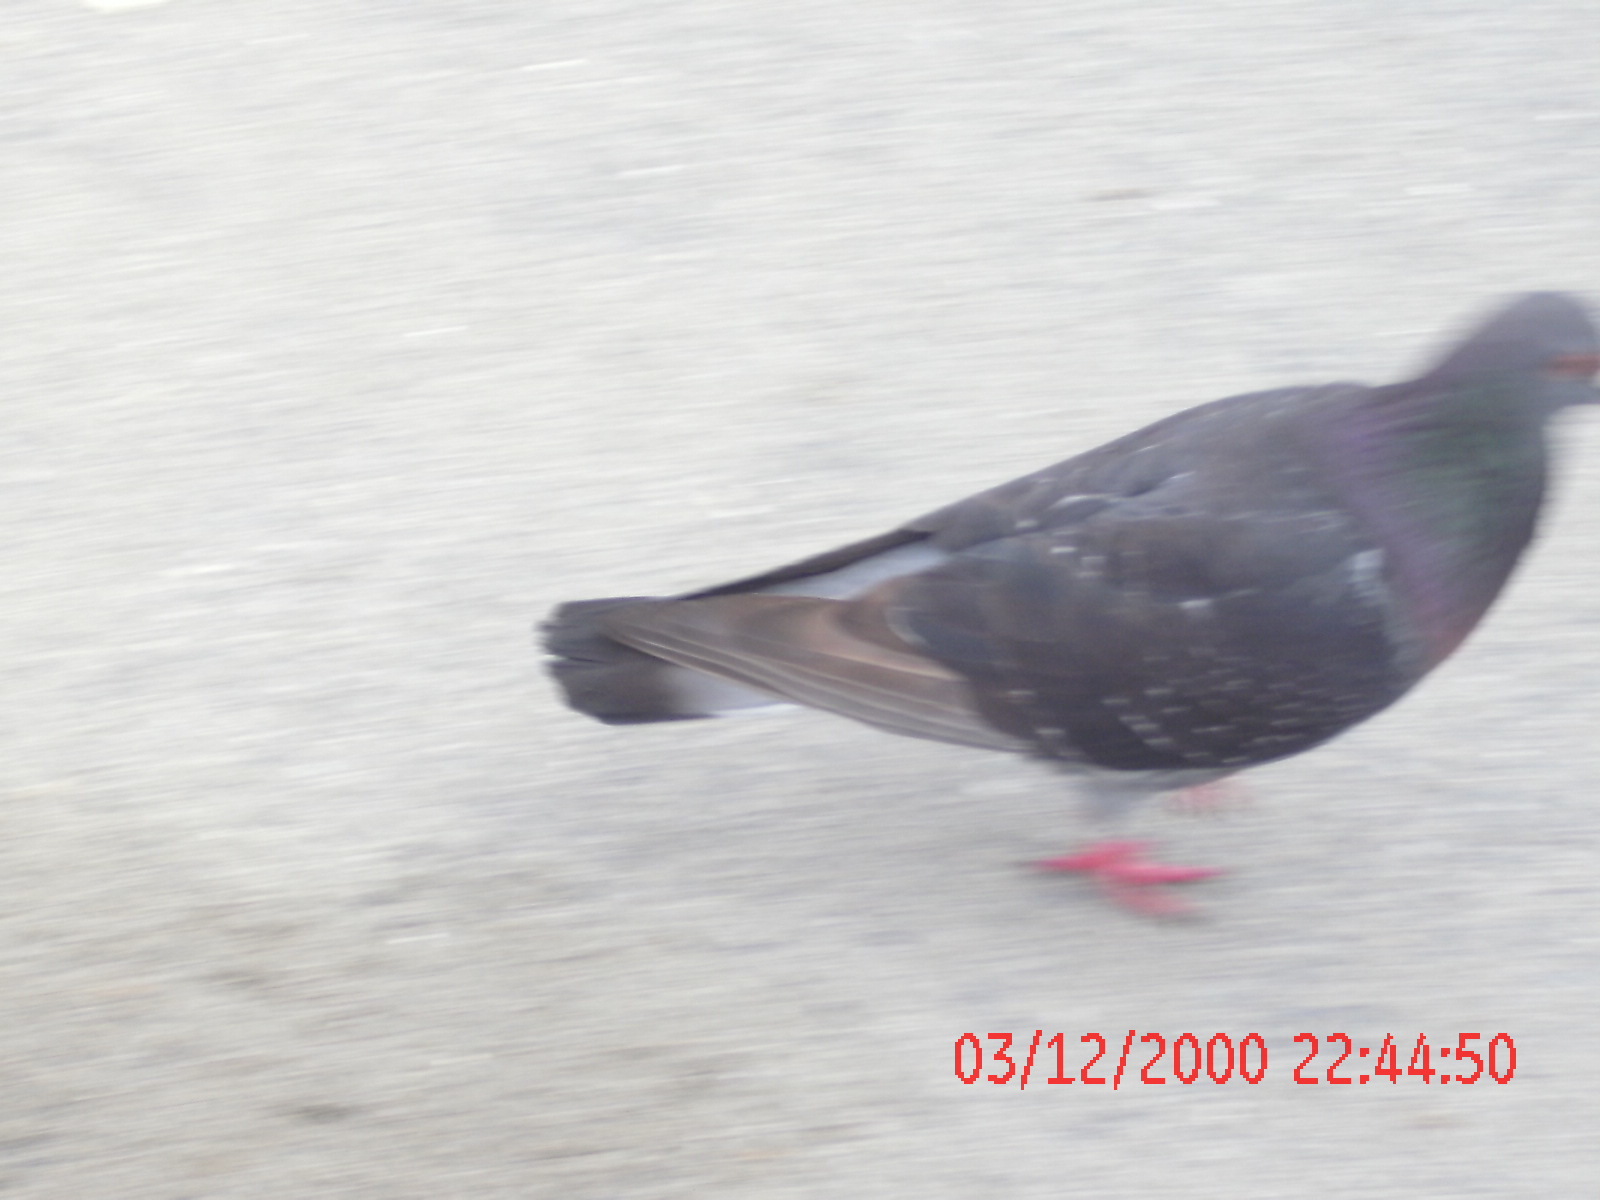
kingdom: Animalia
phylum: Chordata
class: Aves
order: Columbiformes
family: Columbidae
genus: Columba
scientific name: Columba livia
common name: Rock pigeon
